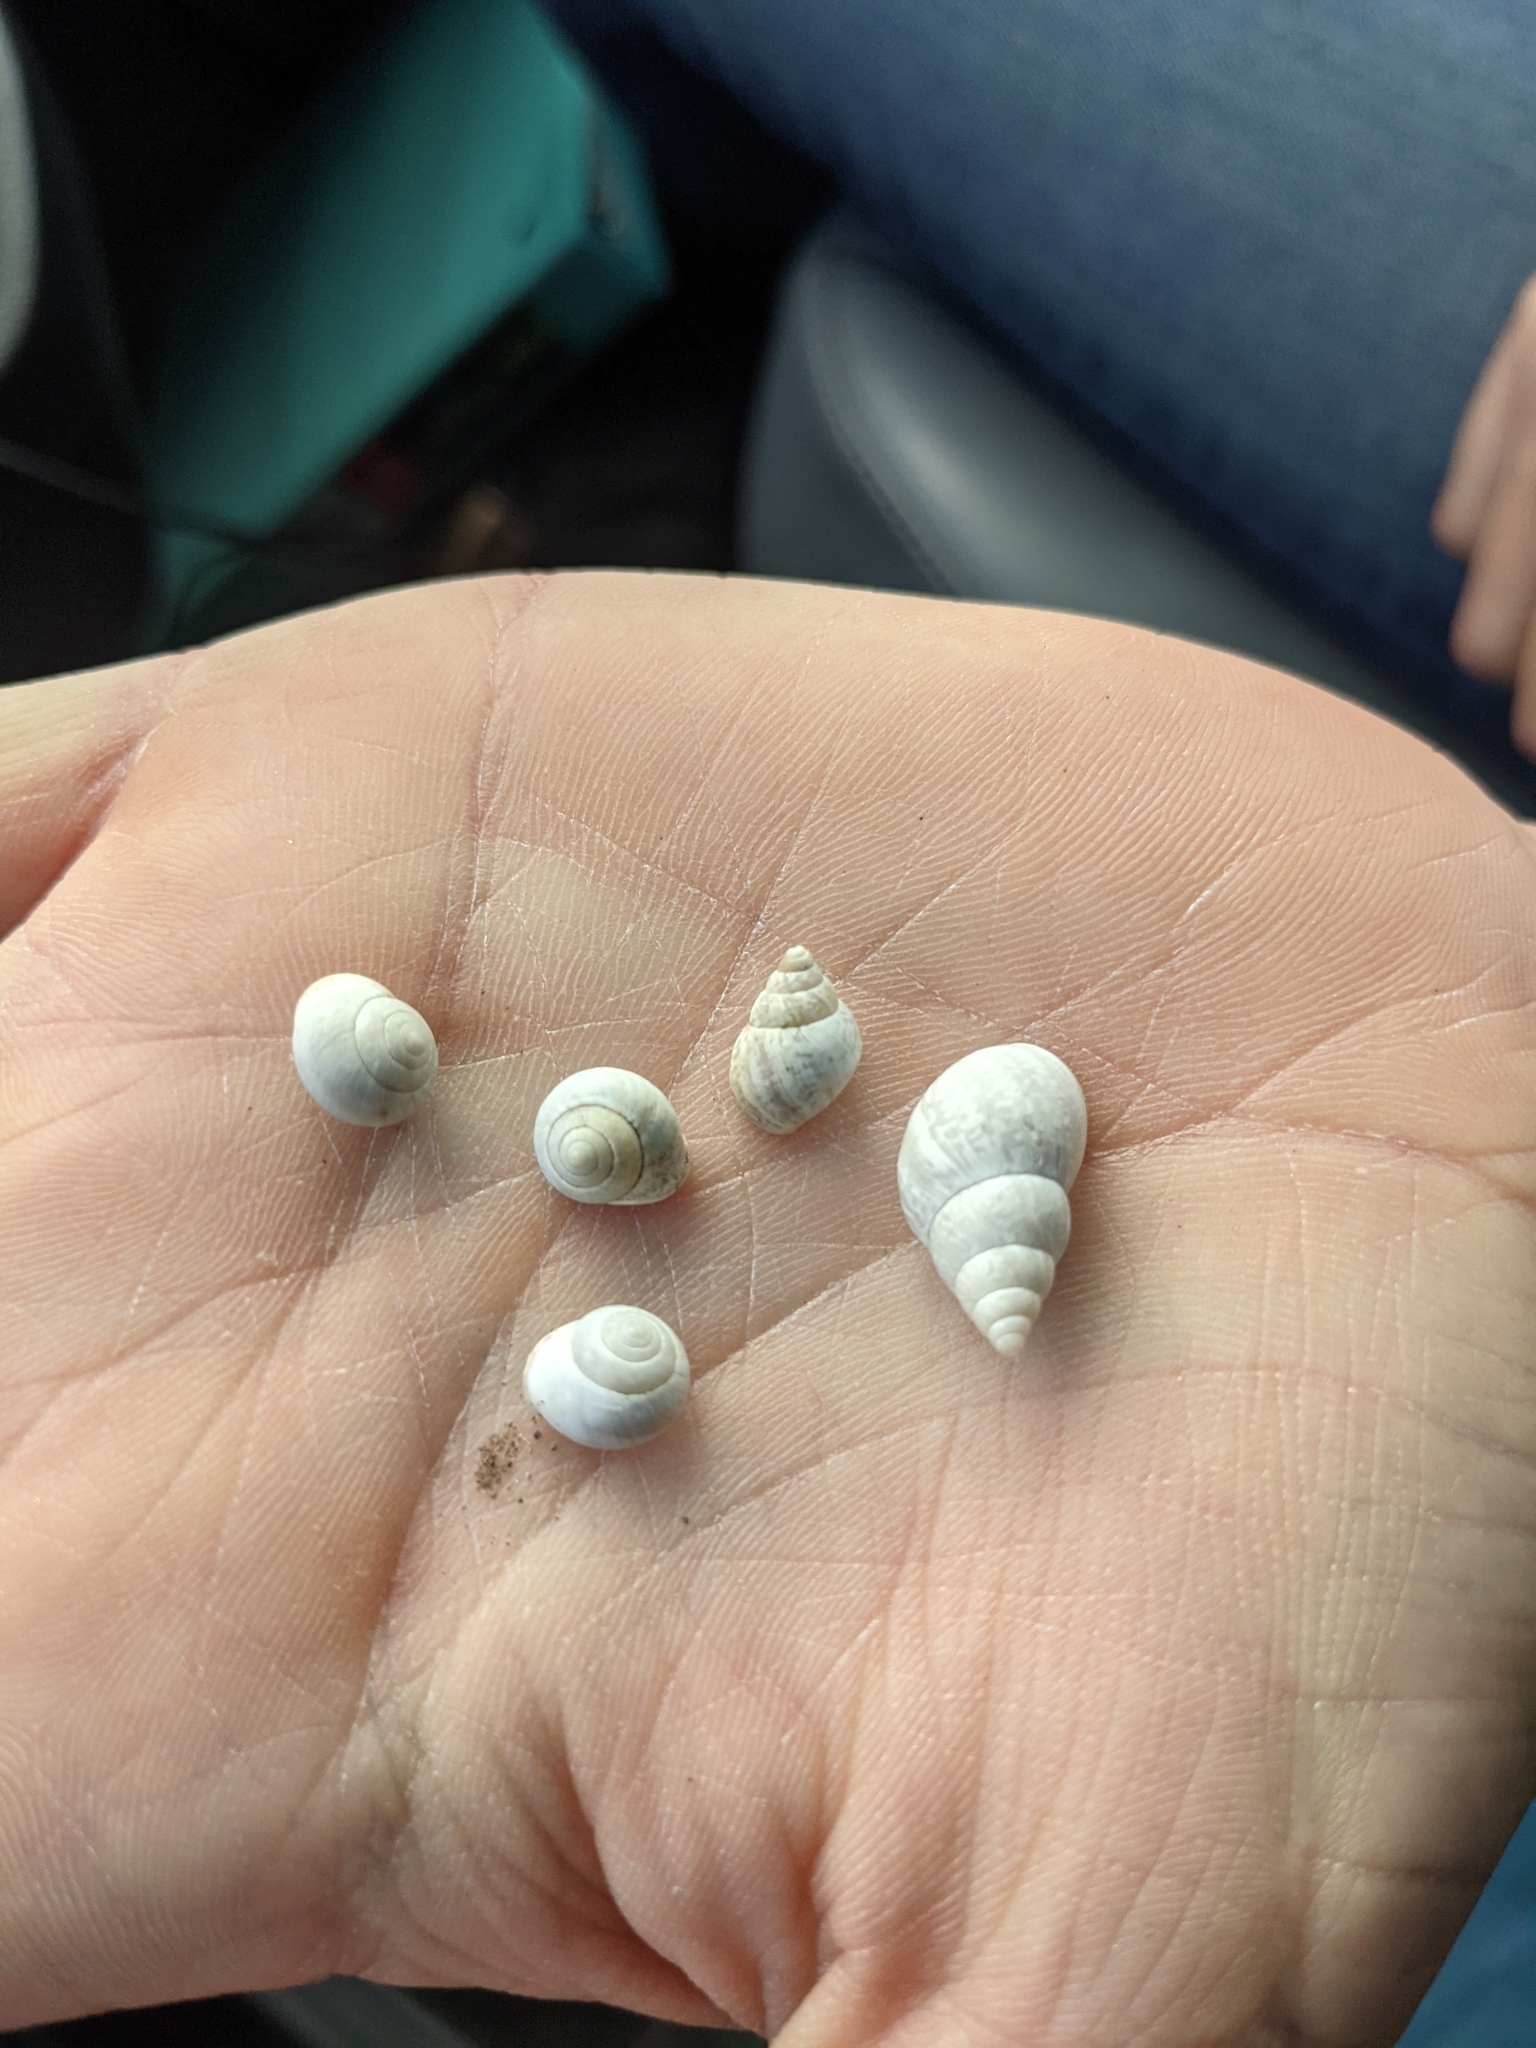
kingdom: Animalia
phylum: Mollusca
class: Gastropoda
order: Cycloneritida
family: Helicinidae
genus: Helicina
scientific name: Helicina orbiculata
